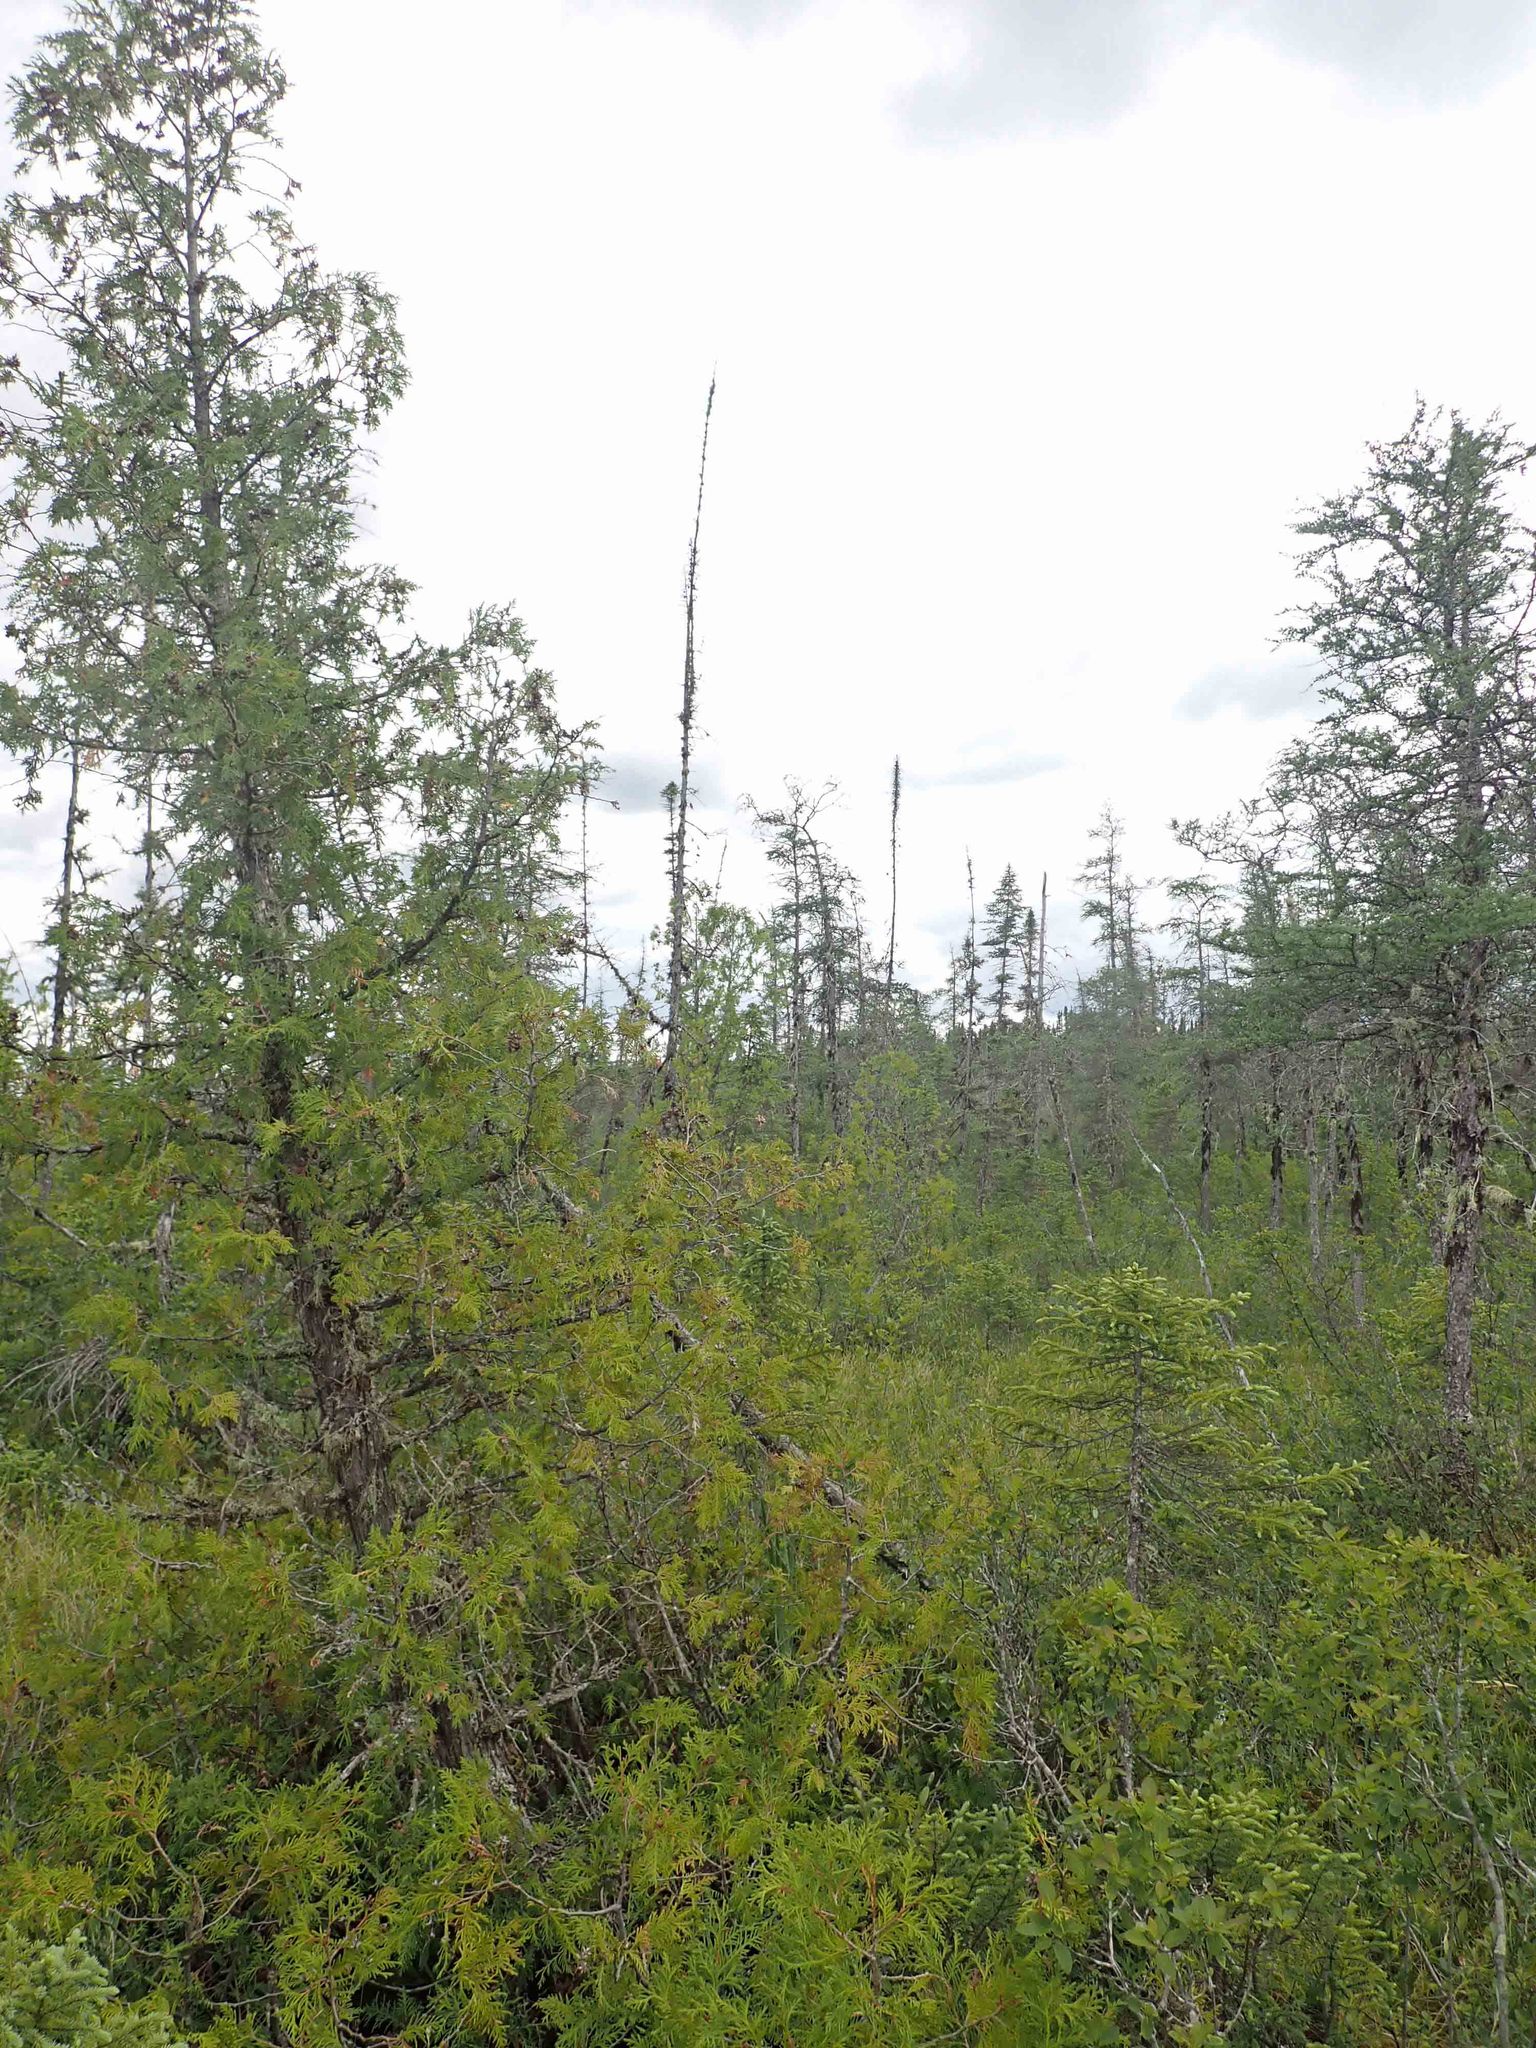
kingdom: Plantae
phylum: Tracheophyta
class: Pinopsida
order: Pinales
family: Cupressaceae
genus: Thuja
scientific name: Thuja occidentalis
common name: Northern white-cedar
